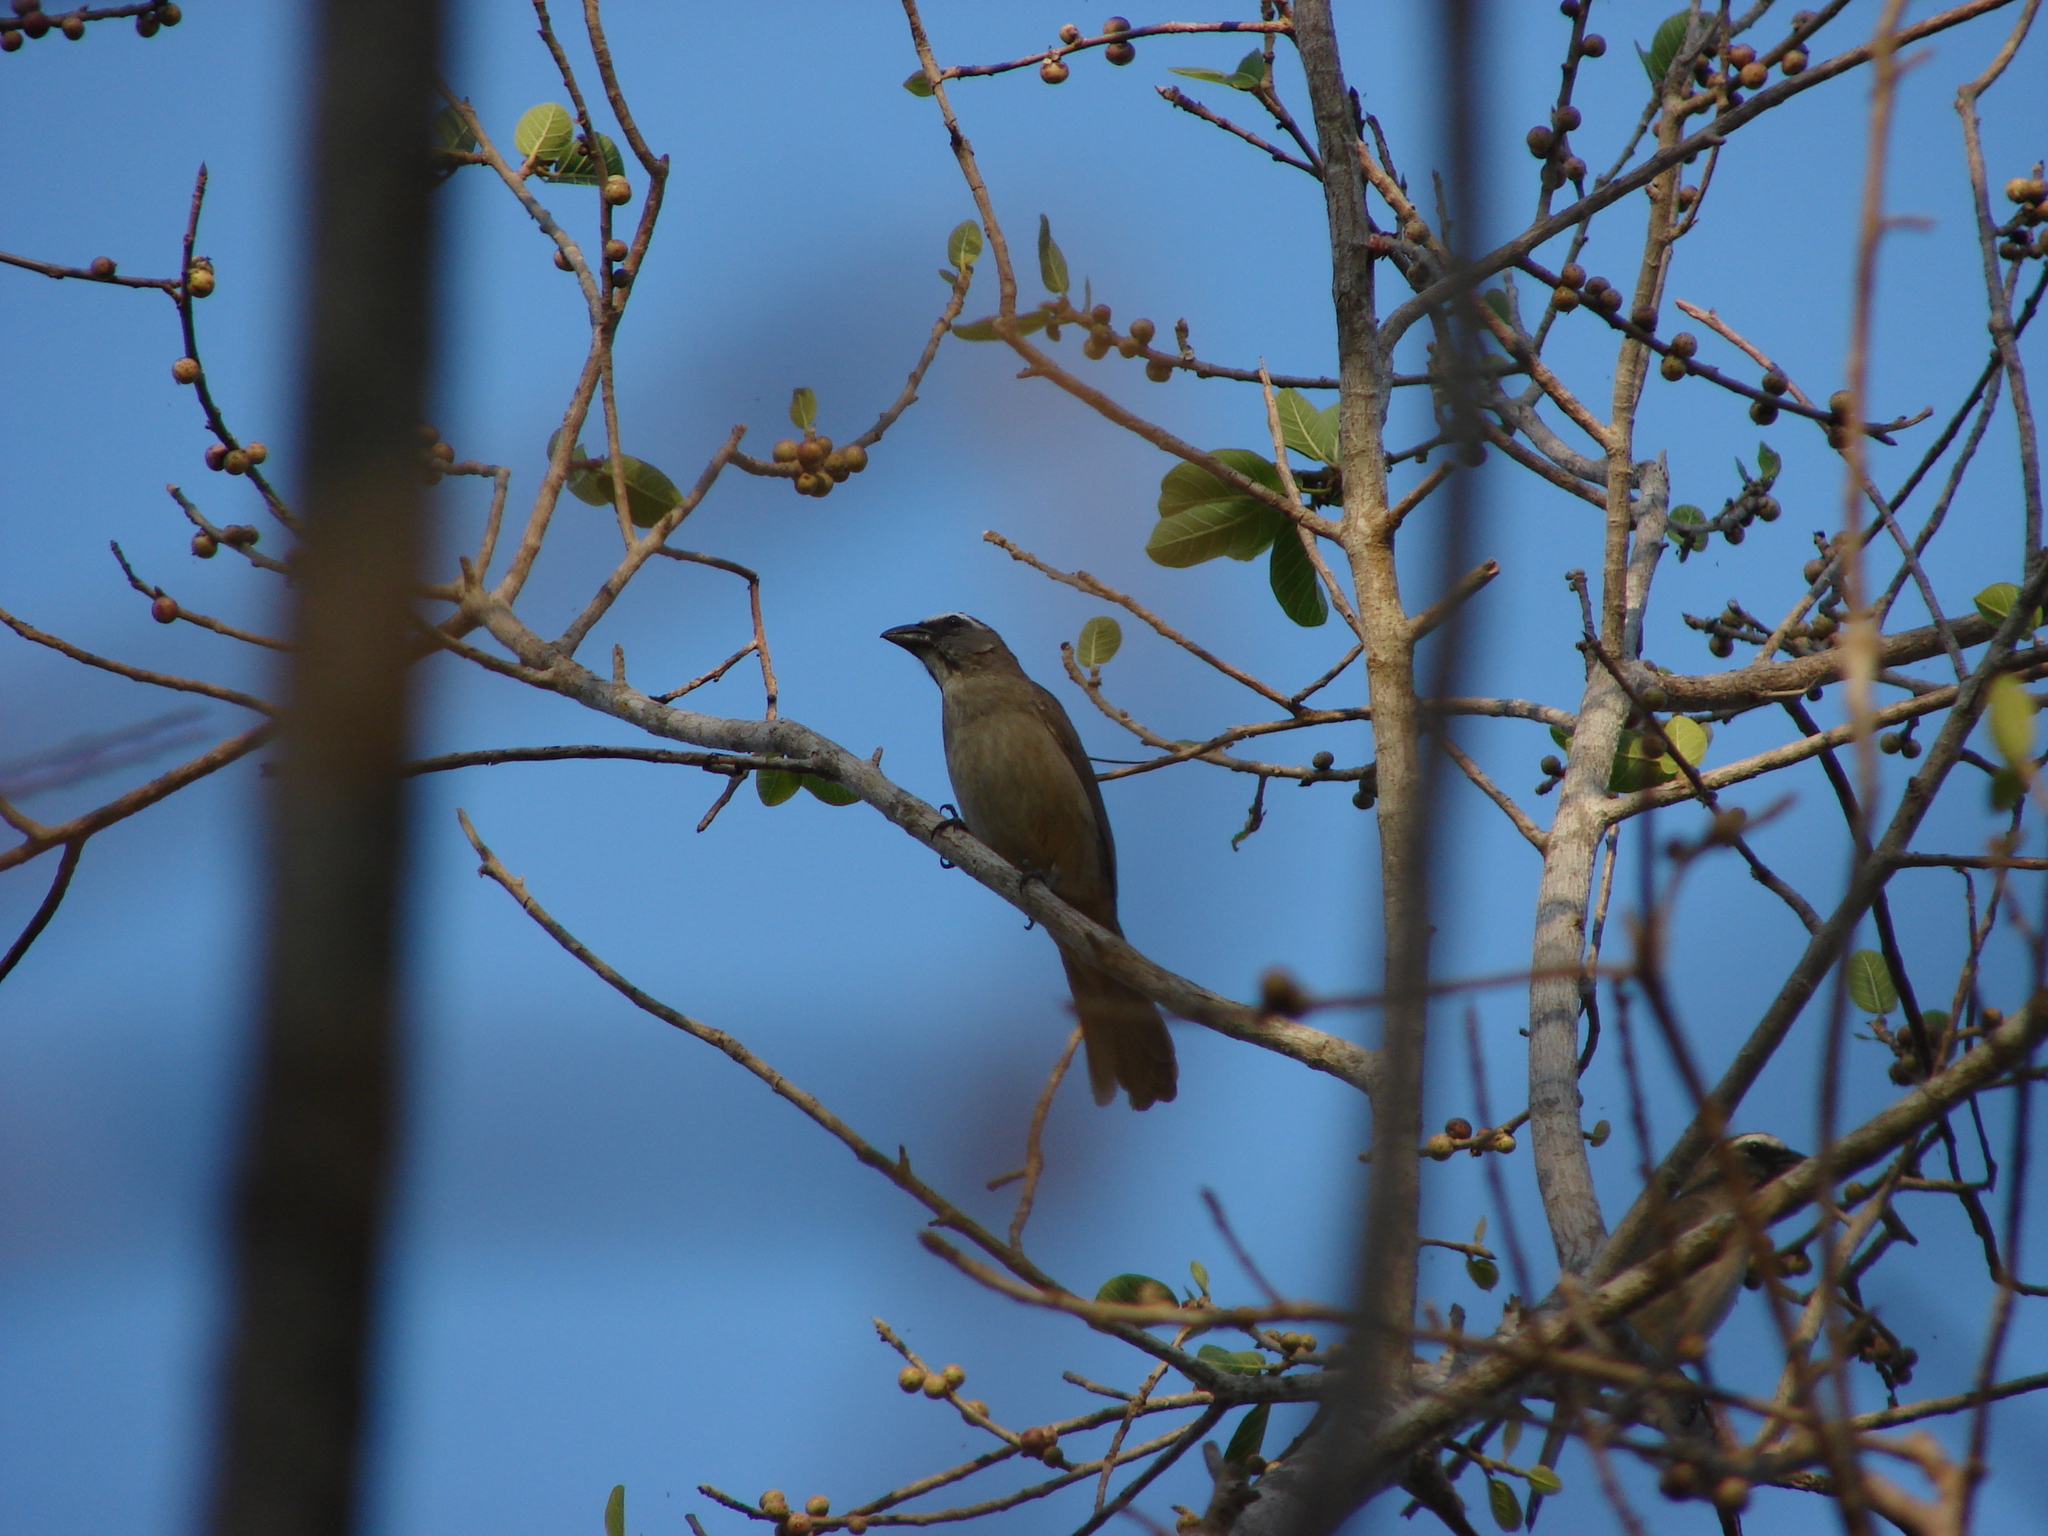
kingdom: Animalia
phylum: Chordata
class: Aves
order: Passeriformes
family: Thraupidae
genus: Saltator
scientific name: Saltator grandis
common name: Cinnamon-bellied saltator
